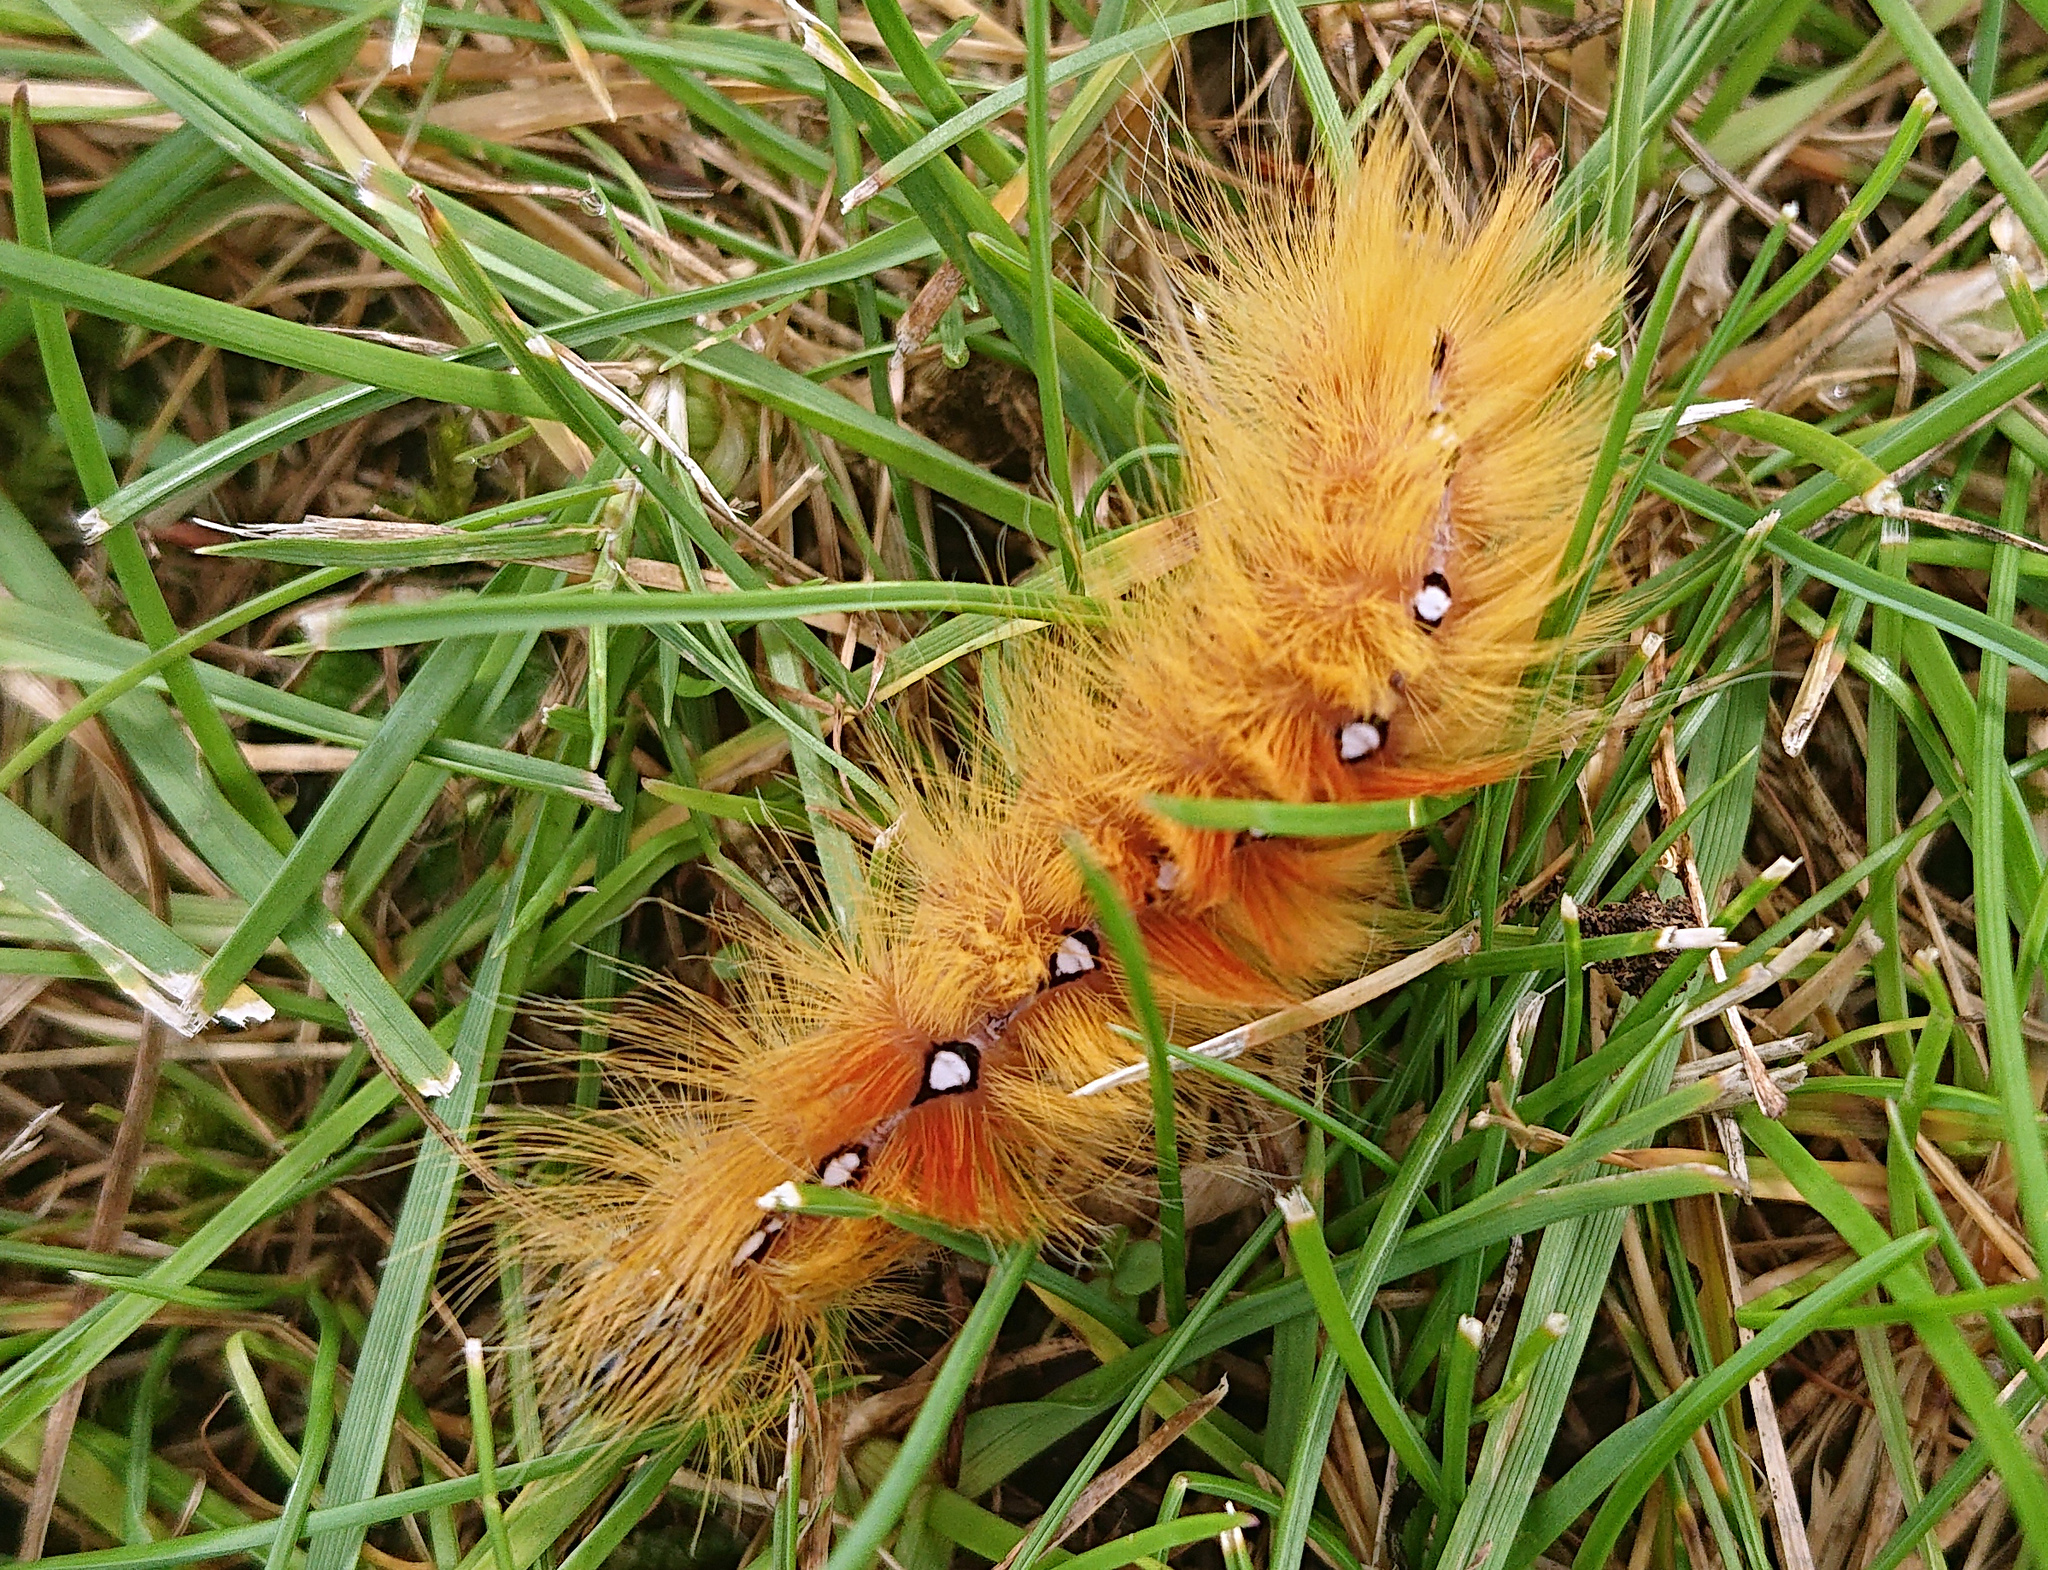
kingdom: Animalia
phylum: Arthropoda
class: Insecta
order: Lepidoptera
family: Noctuidae
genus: Acronicta
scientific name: Acronicta aceris
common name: Sycamore
